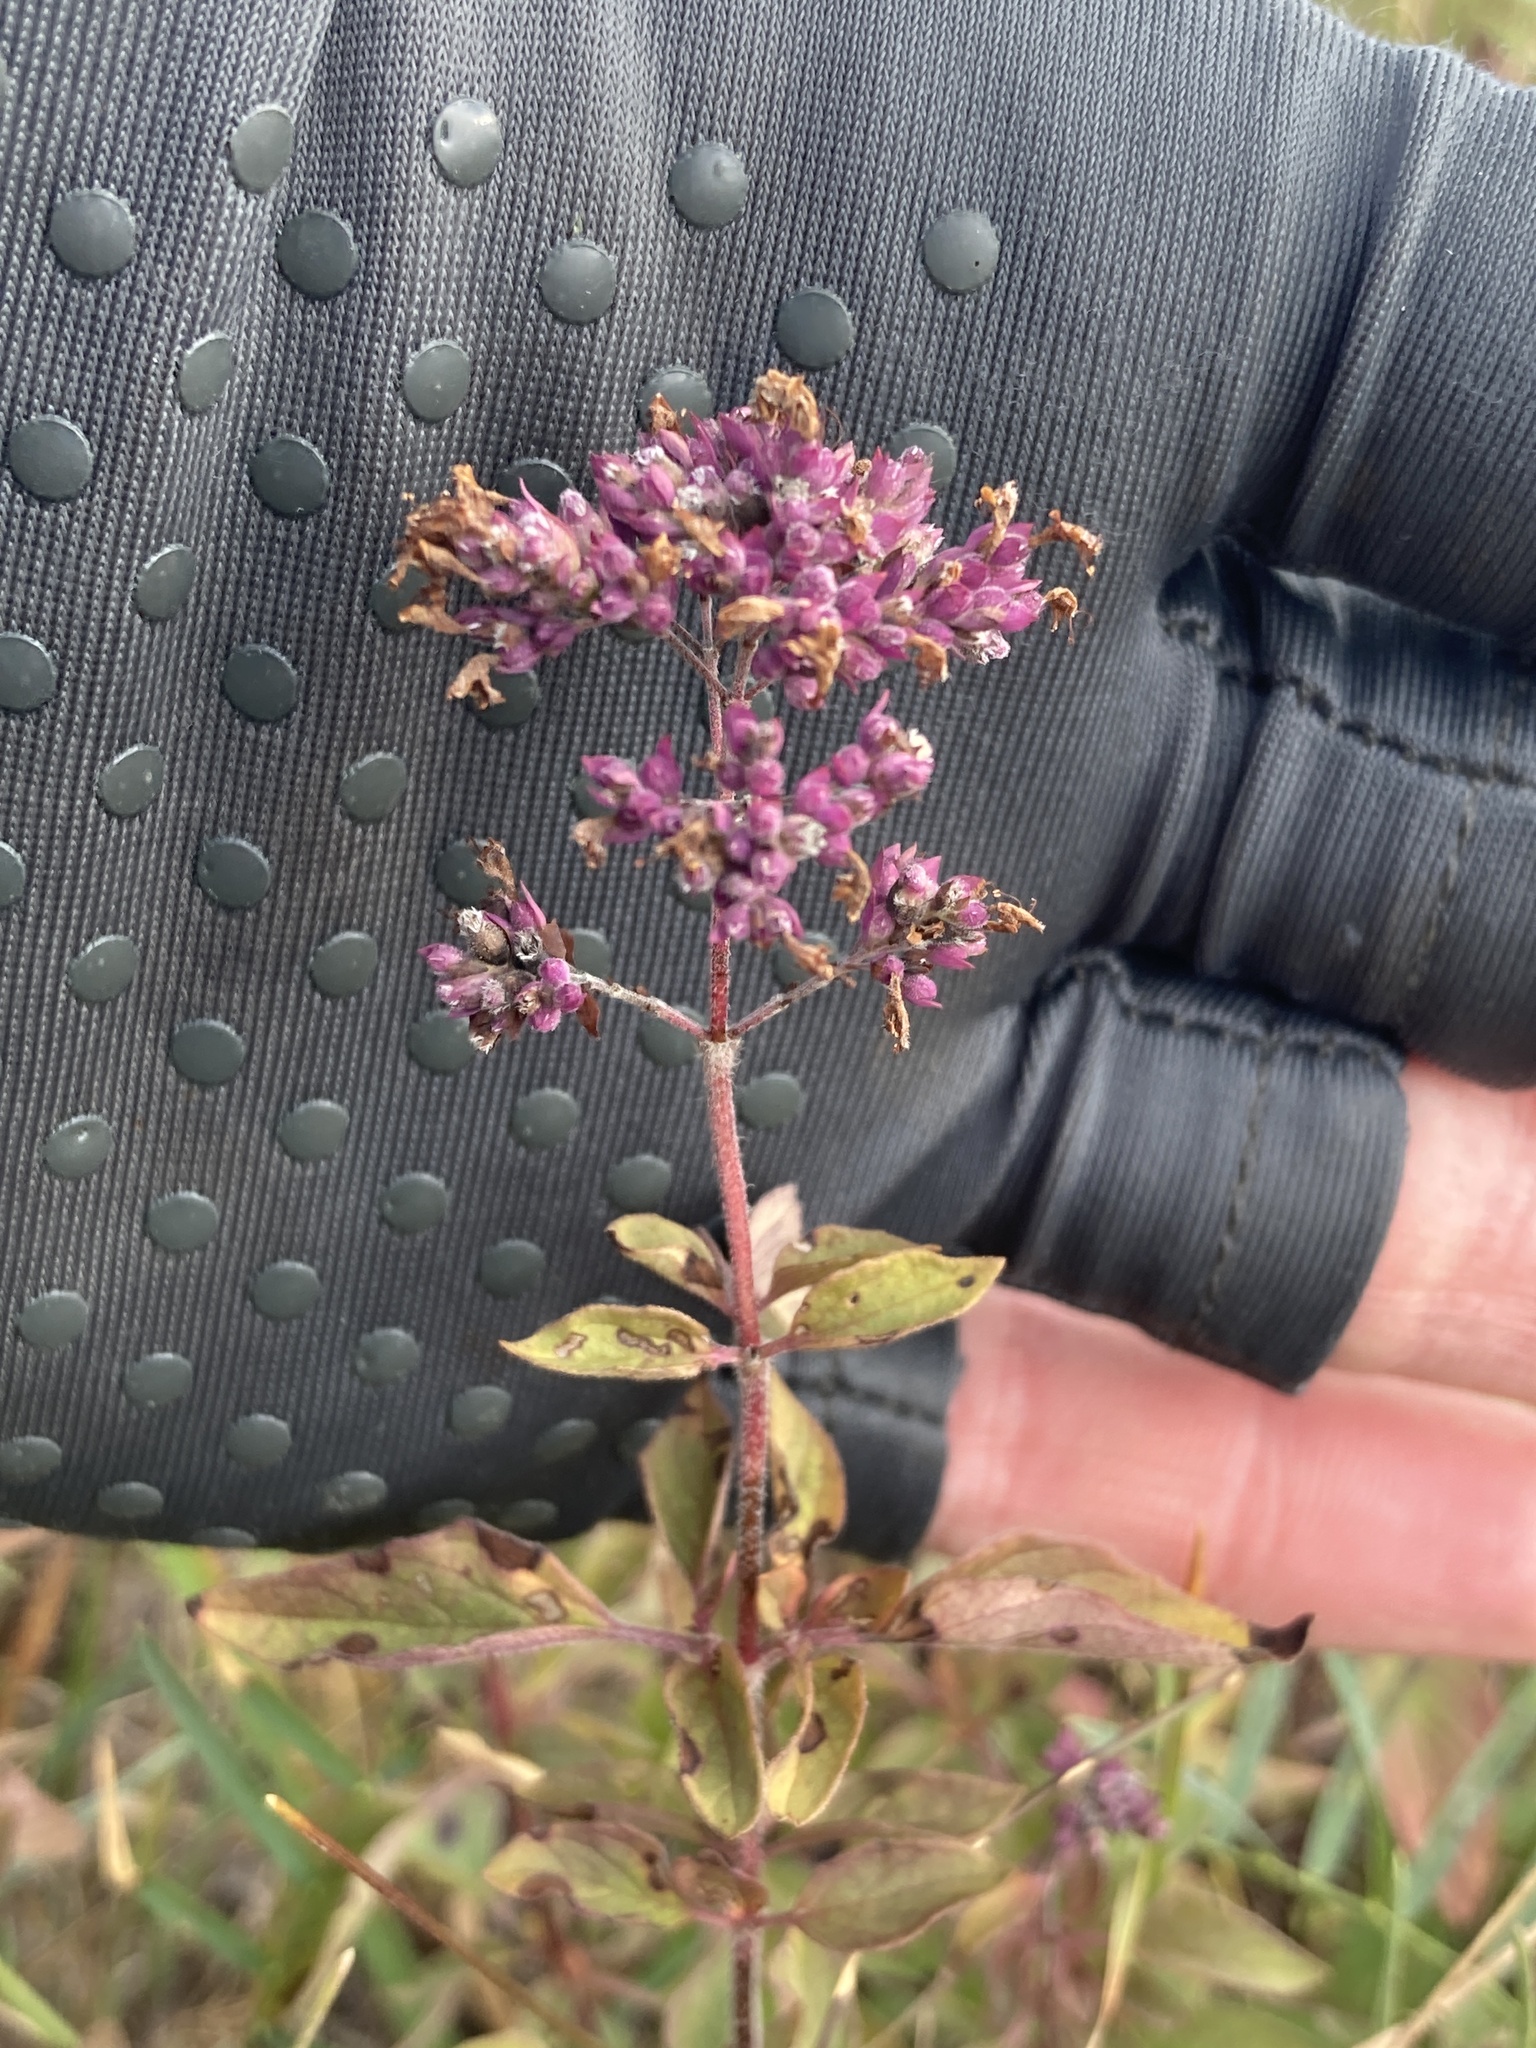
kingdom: Plantae
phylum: Tracheophyta
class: Magnoliopsida
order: Lamiales
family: Lamiaceae
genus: Origanum
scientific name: Origanum vulgare
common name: Wild marjoram
